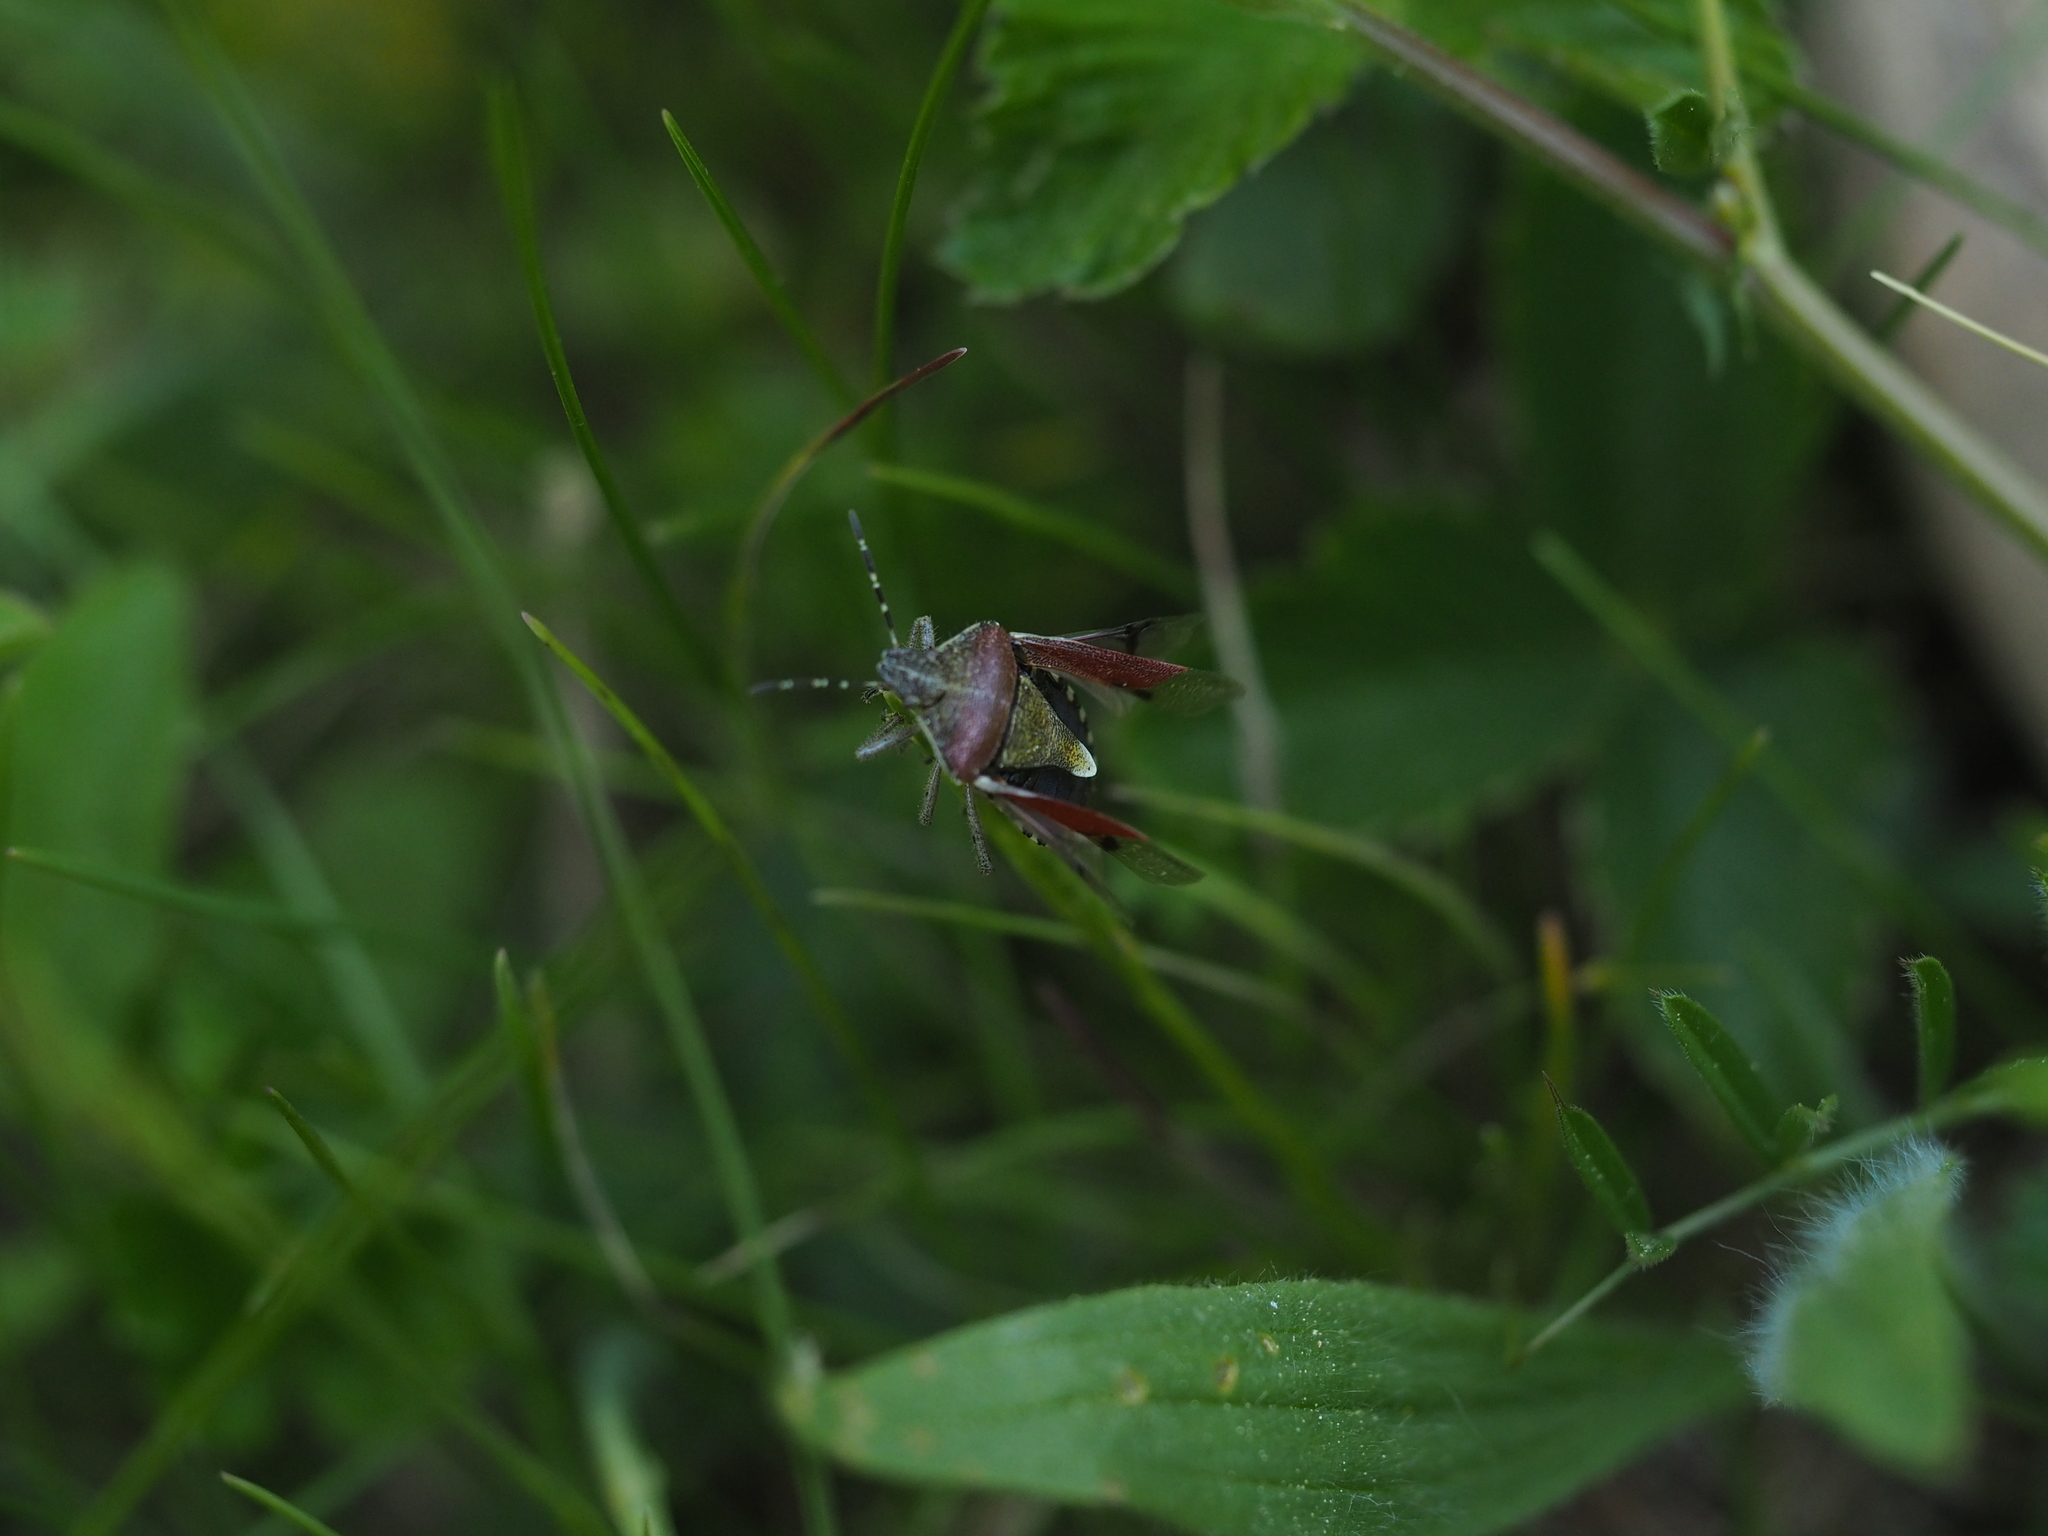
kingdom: Animalia
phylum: Arthropoda
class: Insecta
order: Hemiptera
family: Pentatomidae
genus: Dolycoris
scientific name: Dolycoris baccarum
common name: Sloe bug
